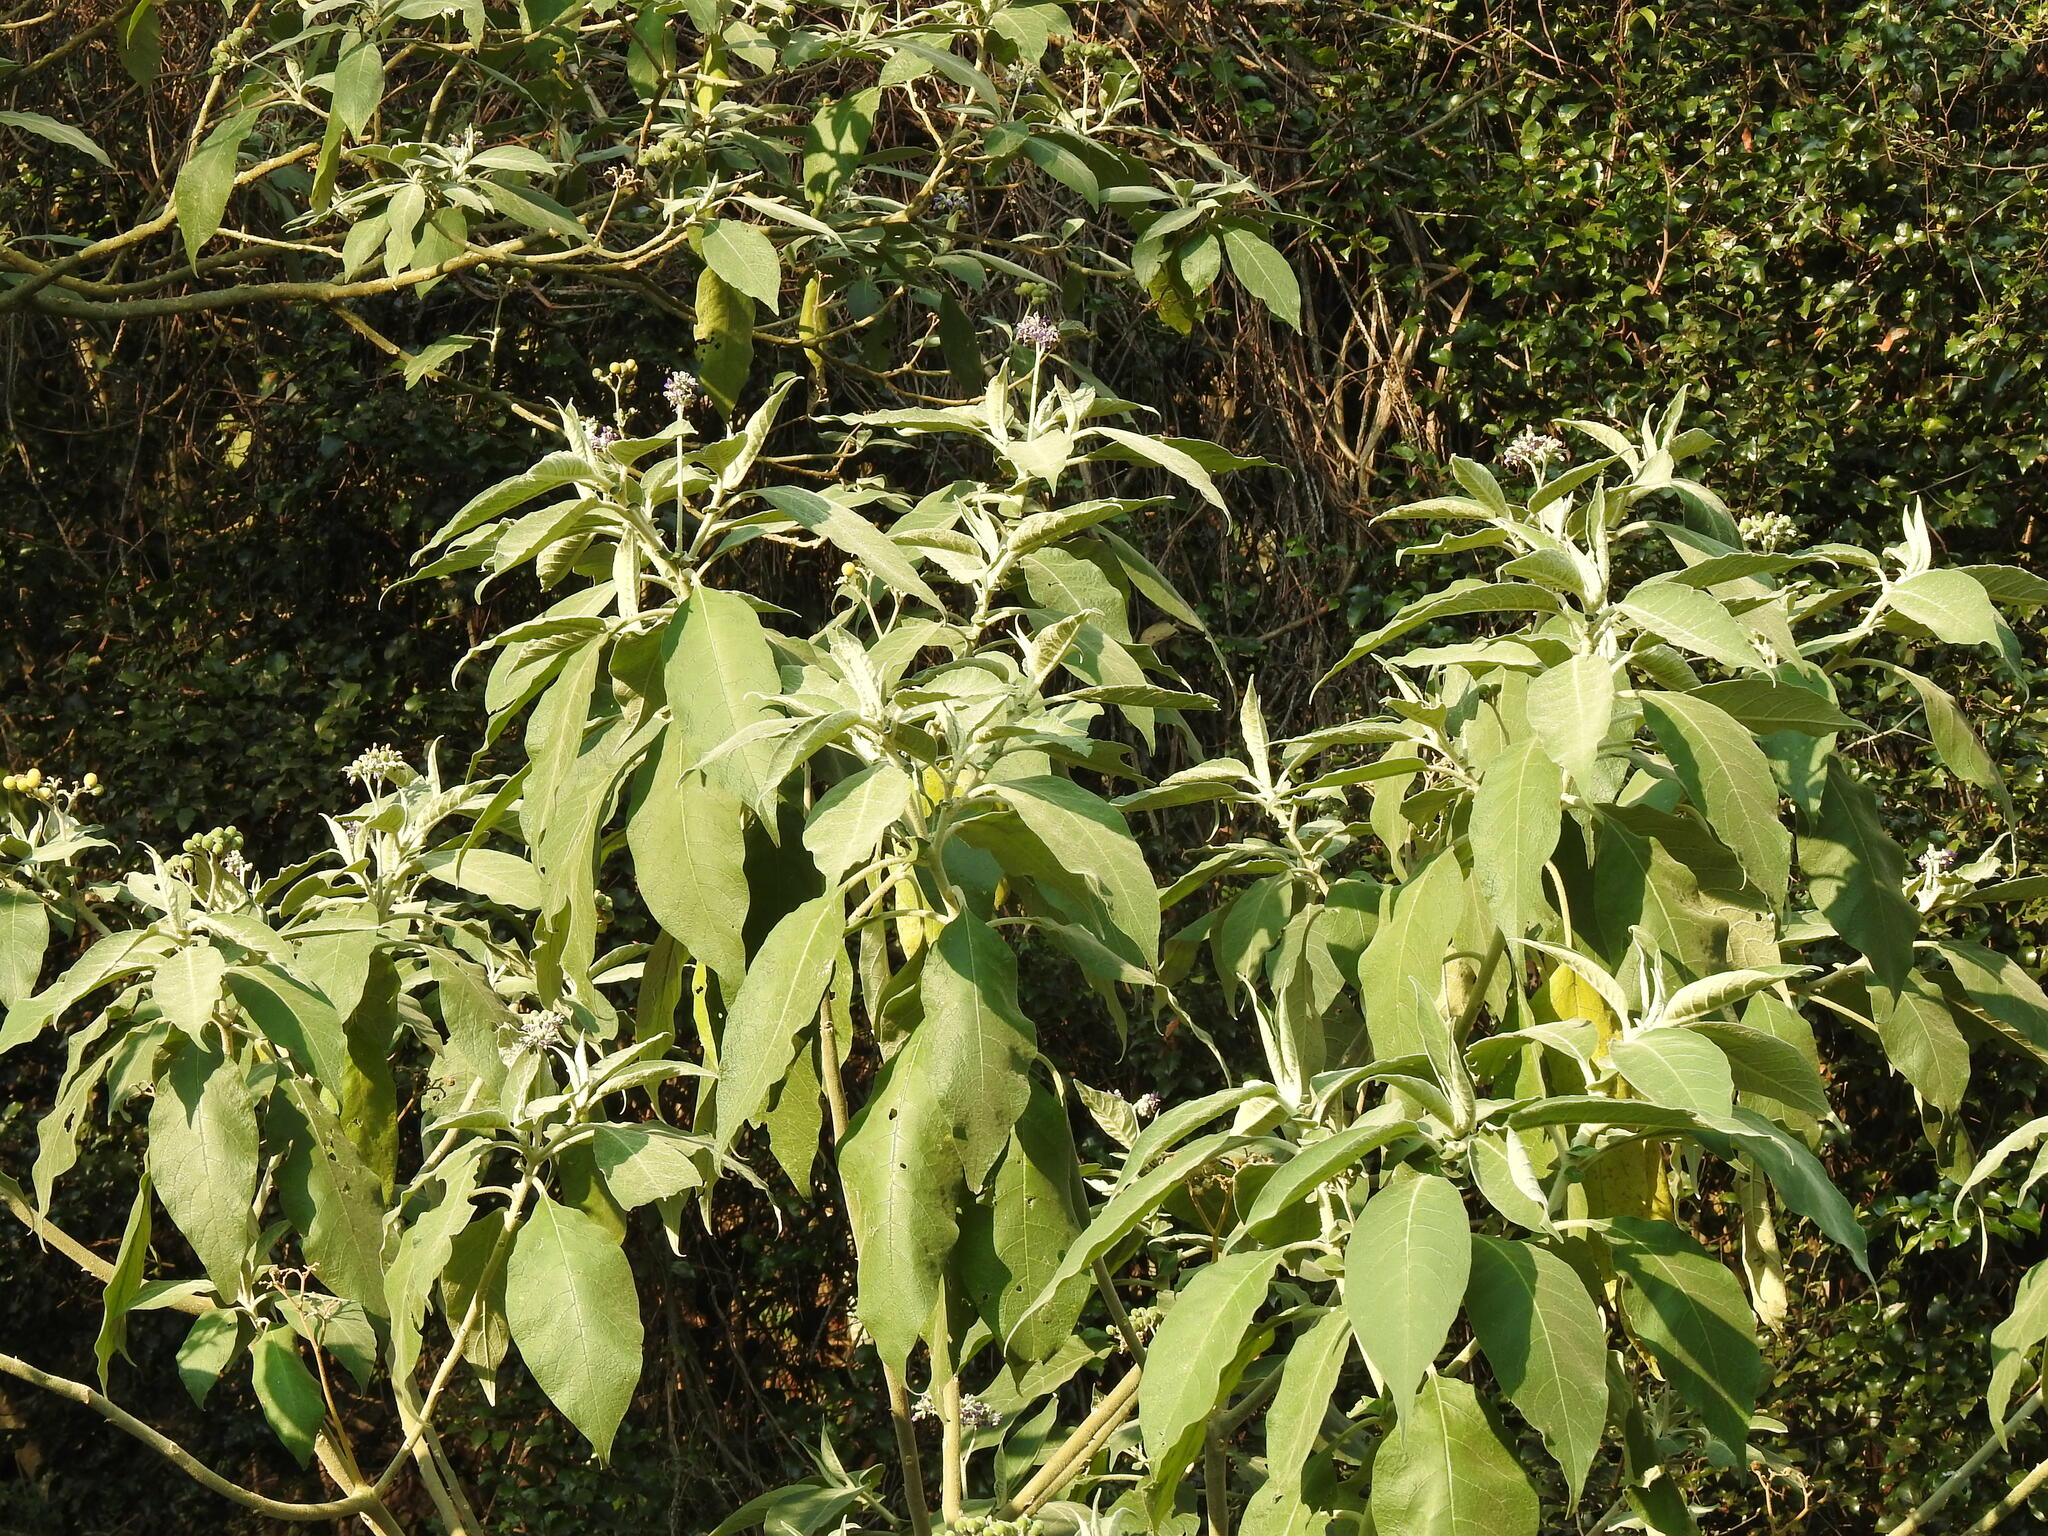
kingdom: Plantae
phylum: Tracheophyta
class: Magnoliopsida
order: Solanales
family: Solanaceae
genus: Solanum
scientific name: Solanum mauritianum
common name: Earleaf nightshade
